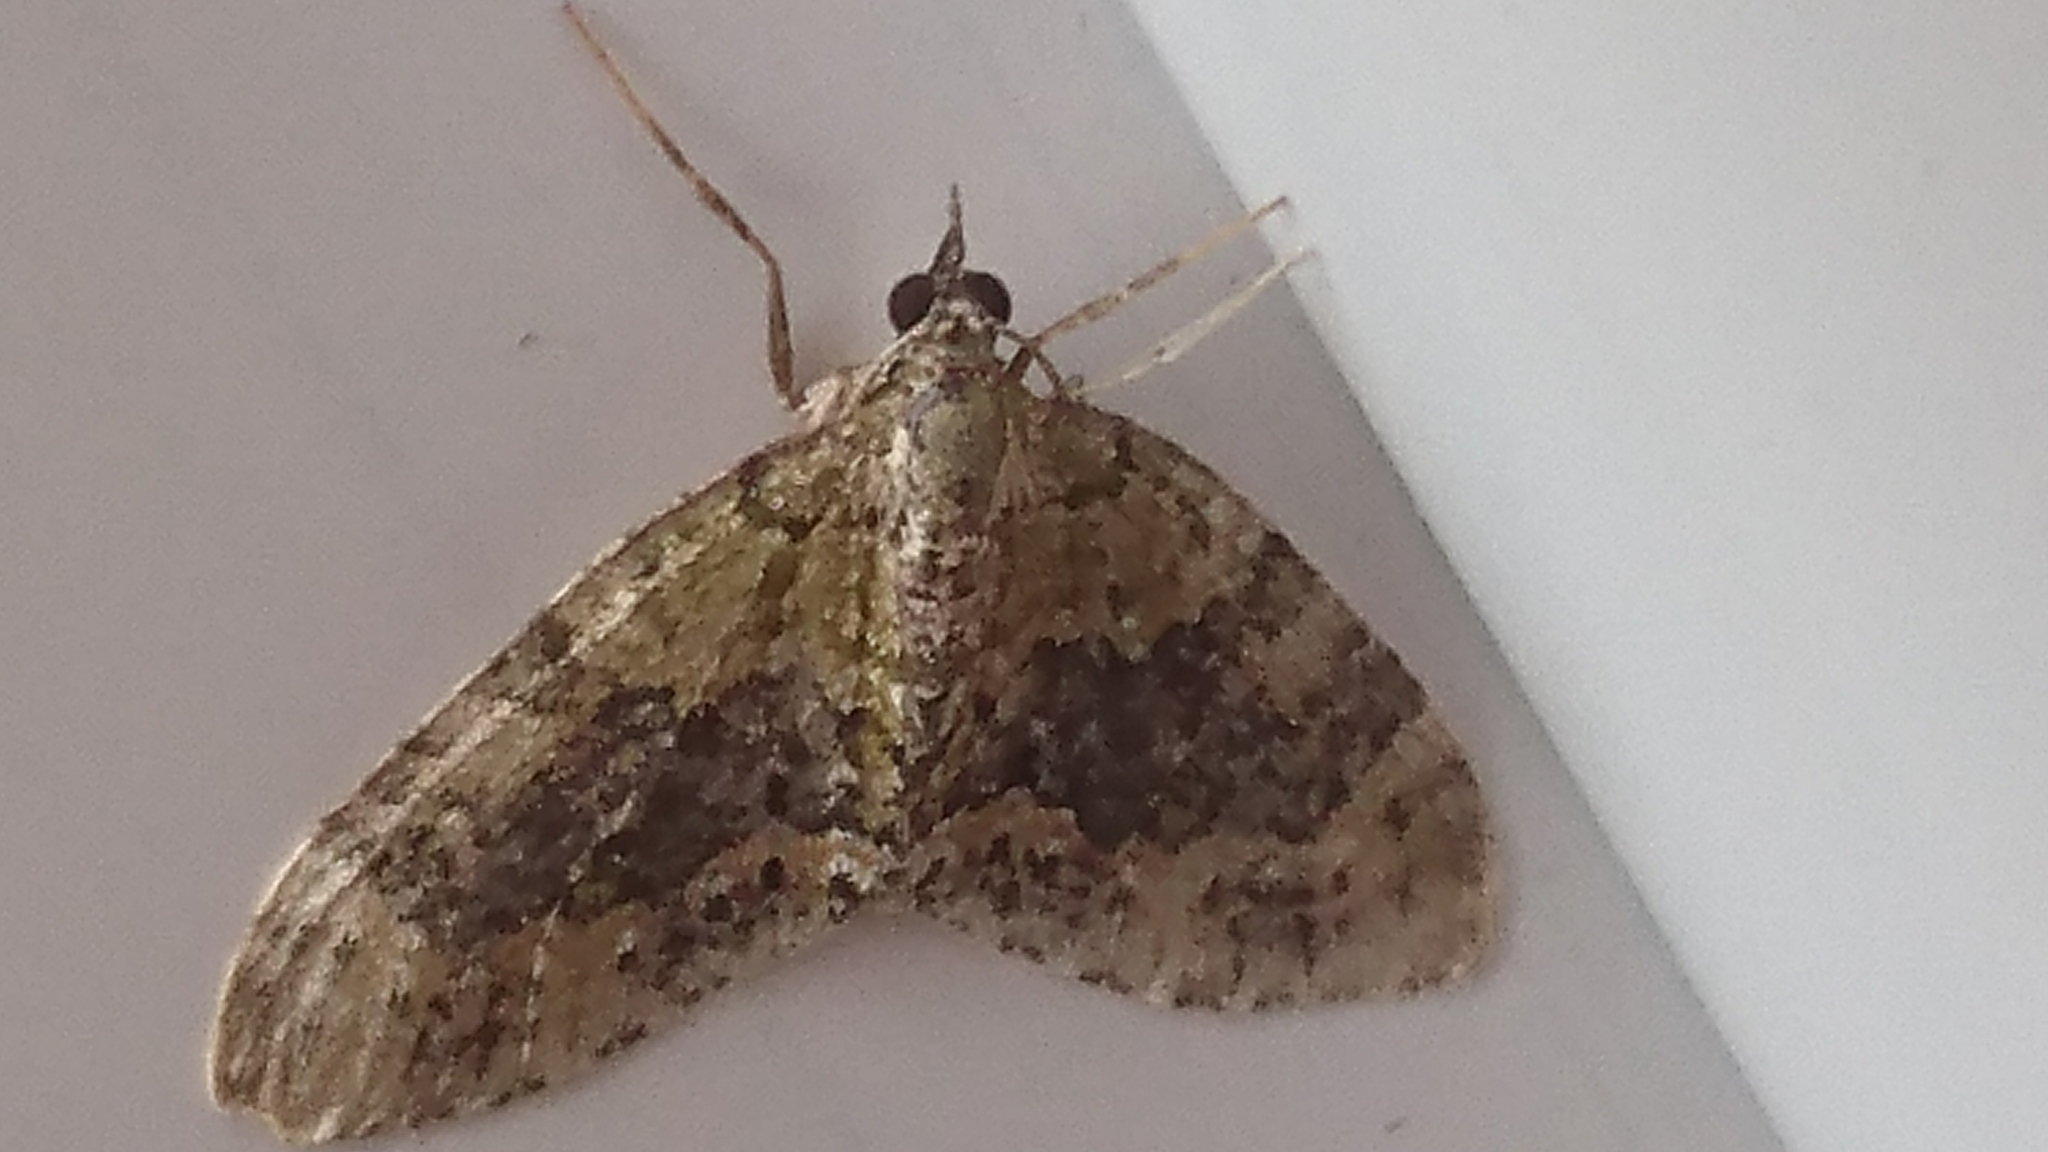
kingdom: Animalia
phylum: Arthropoda
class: Insecta
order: Lepidoptera
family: Geometridae
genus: Acasis
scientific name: Acasis viretata
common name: Yellow-barred brindle
